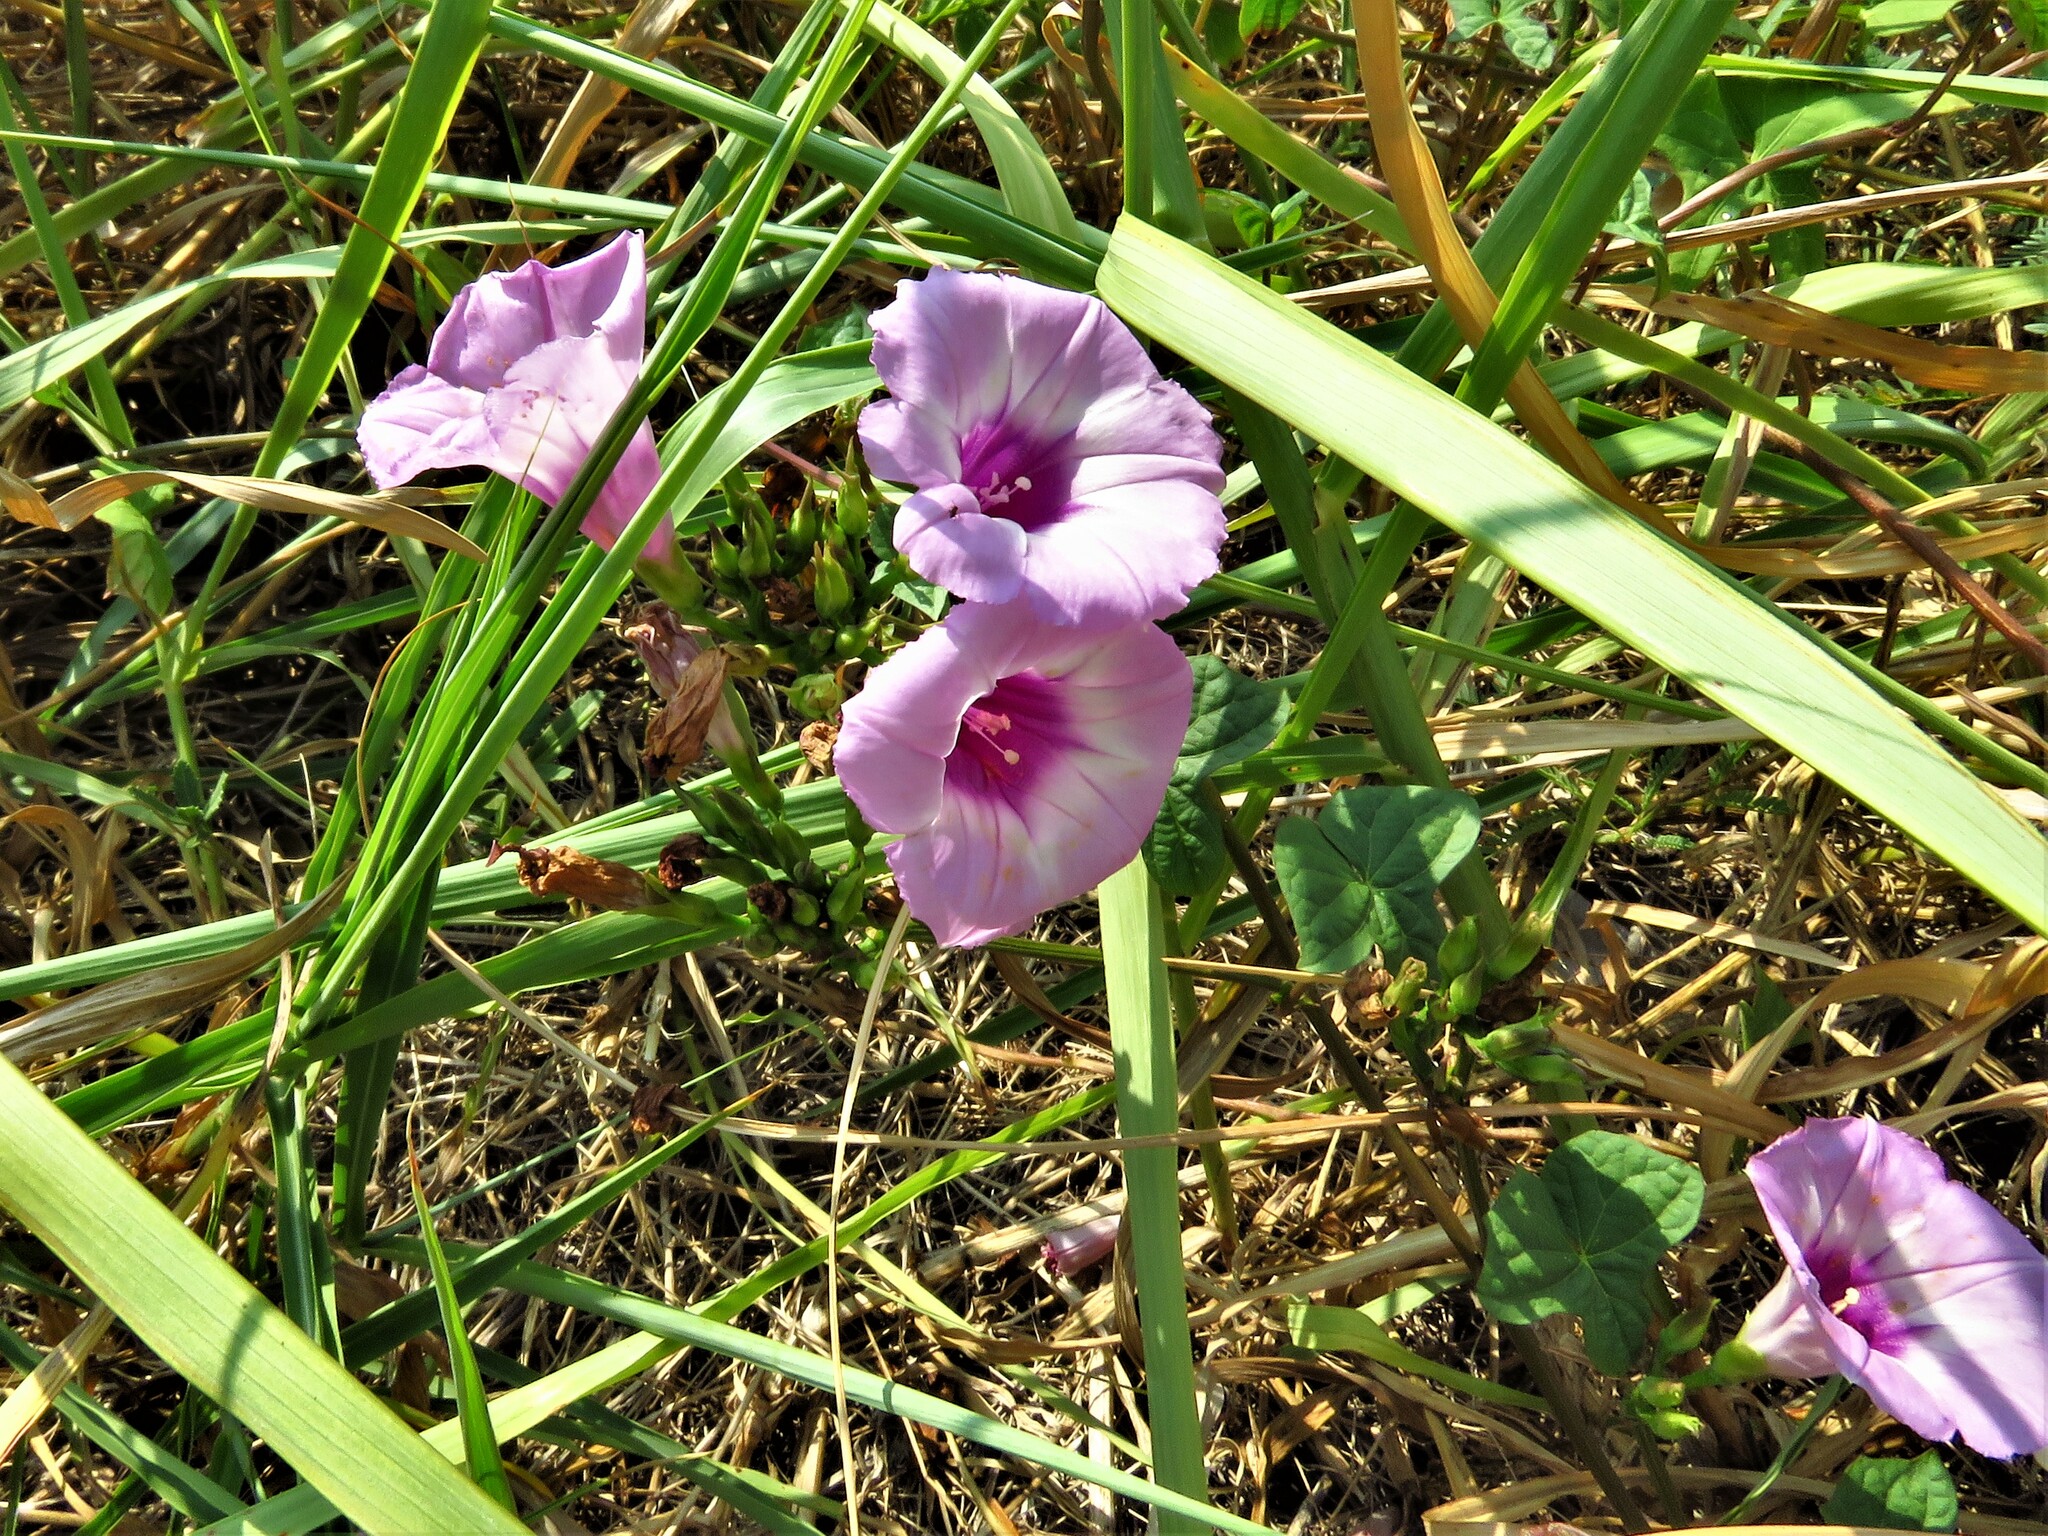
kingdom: Plantae
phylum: Tracheophyta
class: Magnoliopsida
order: Solanales
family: Convolvulaceae
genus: Ipomoea
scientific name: Ipomoea cordatotriloba
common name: Cotton morning glory
